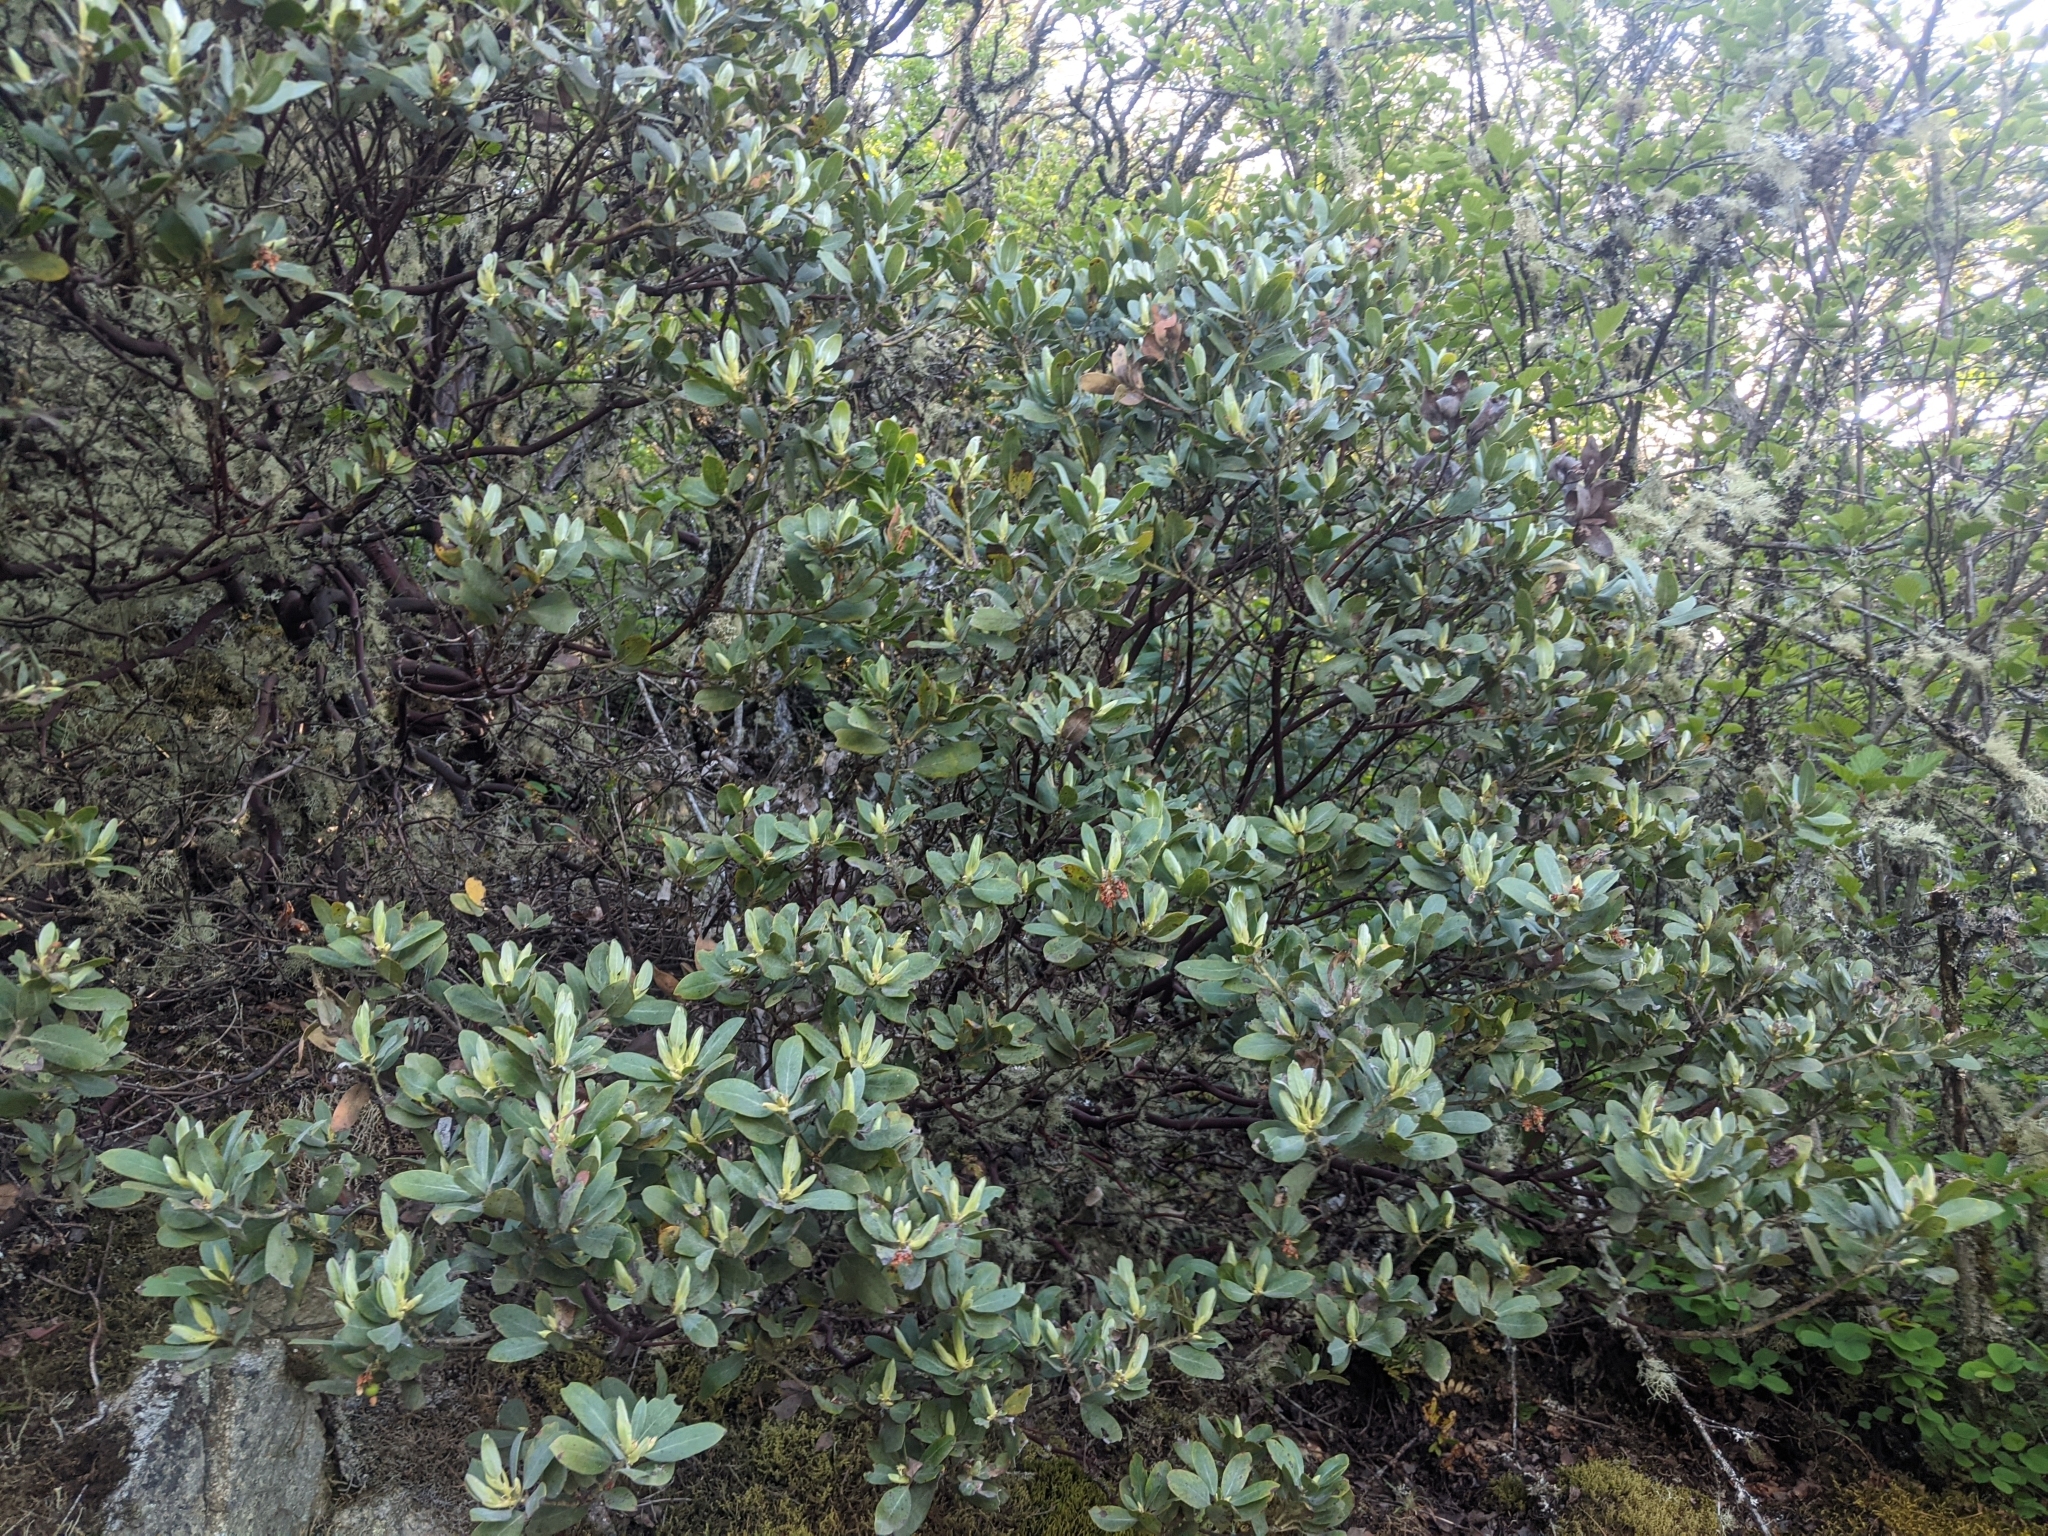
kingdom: Plantae
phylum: Tracheophyta
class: Magnoliopsida
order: Ericales
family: Ericaceae
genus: Arctostaphylos
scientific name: Arctostaphylos columbiana
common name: Bristly bearberry
